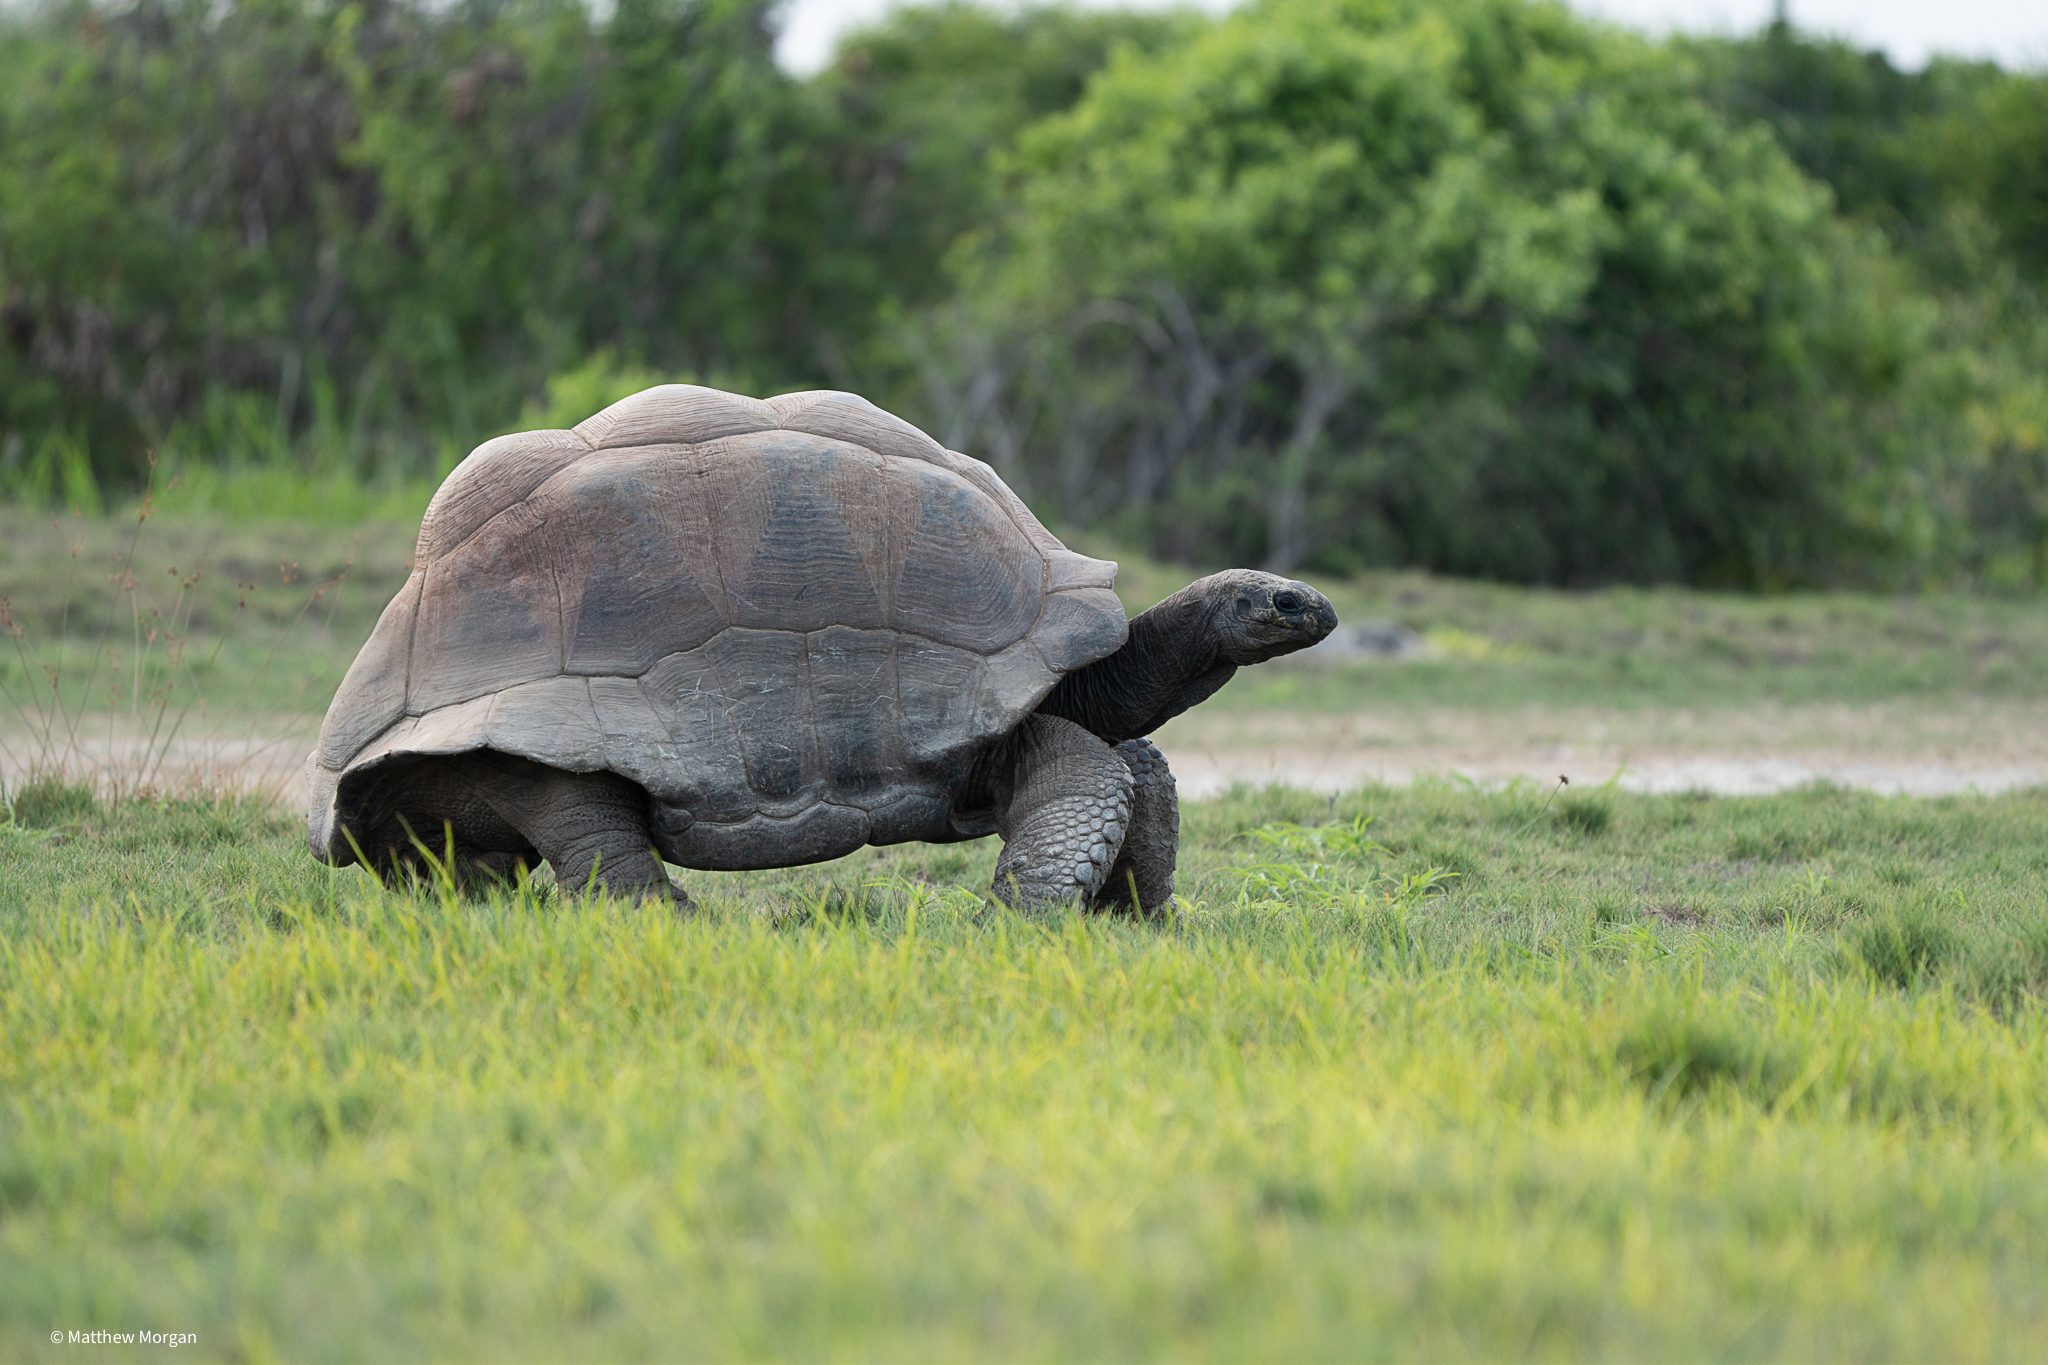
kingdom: Animalia
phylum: Chordata
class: Testudines
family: Testudinidae
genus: Aldabrachelys
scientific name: Aldabrachelys gigantea
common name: Aldabra giant tortoise
